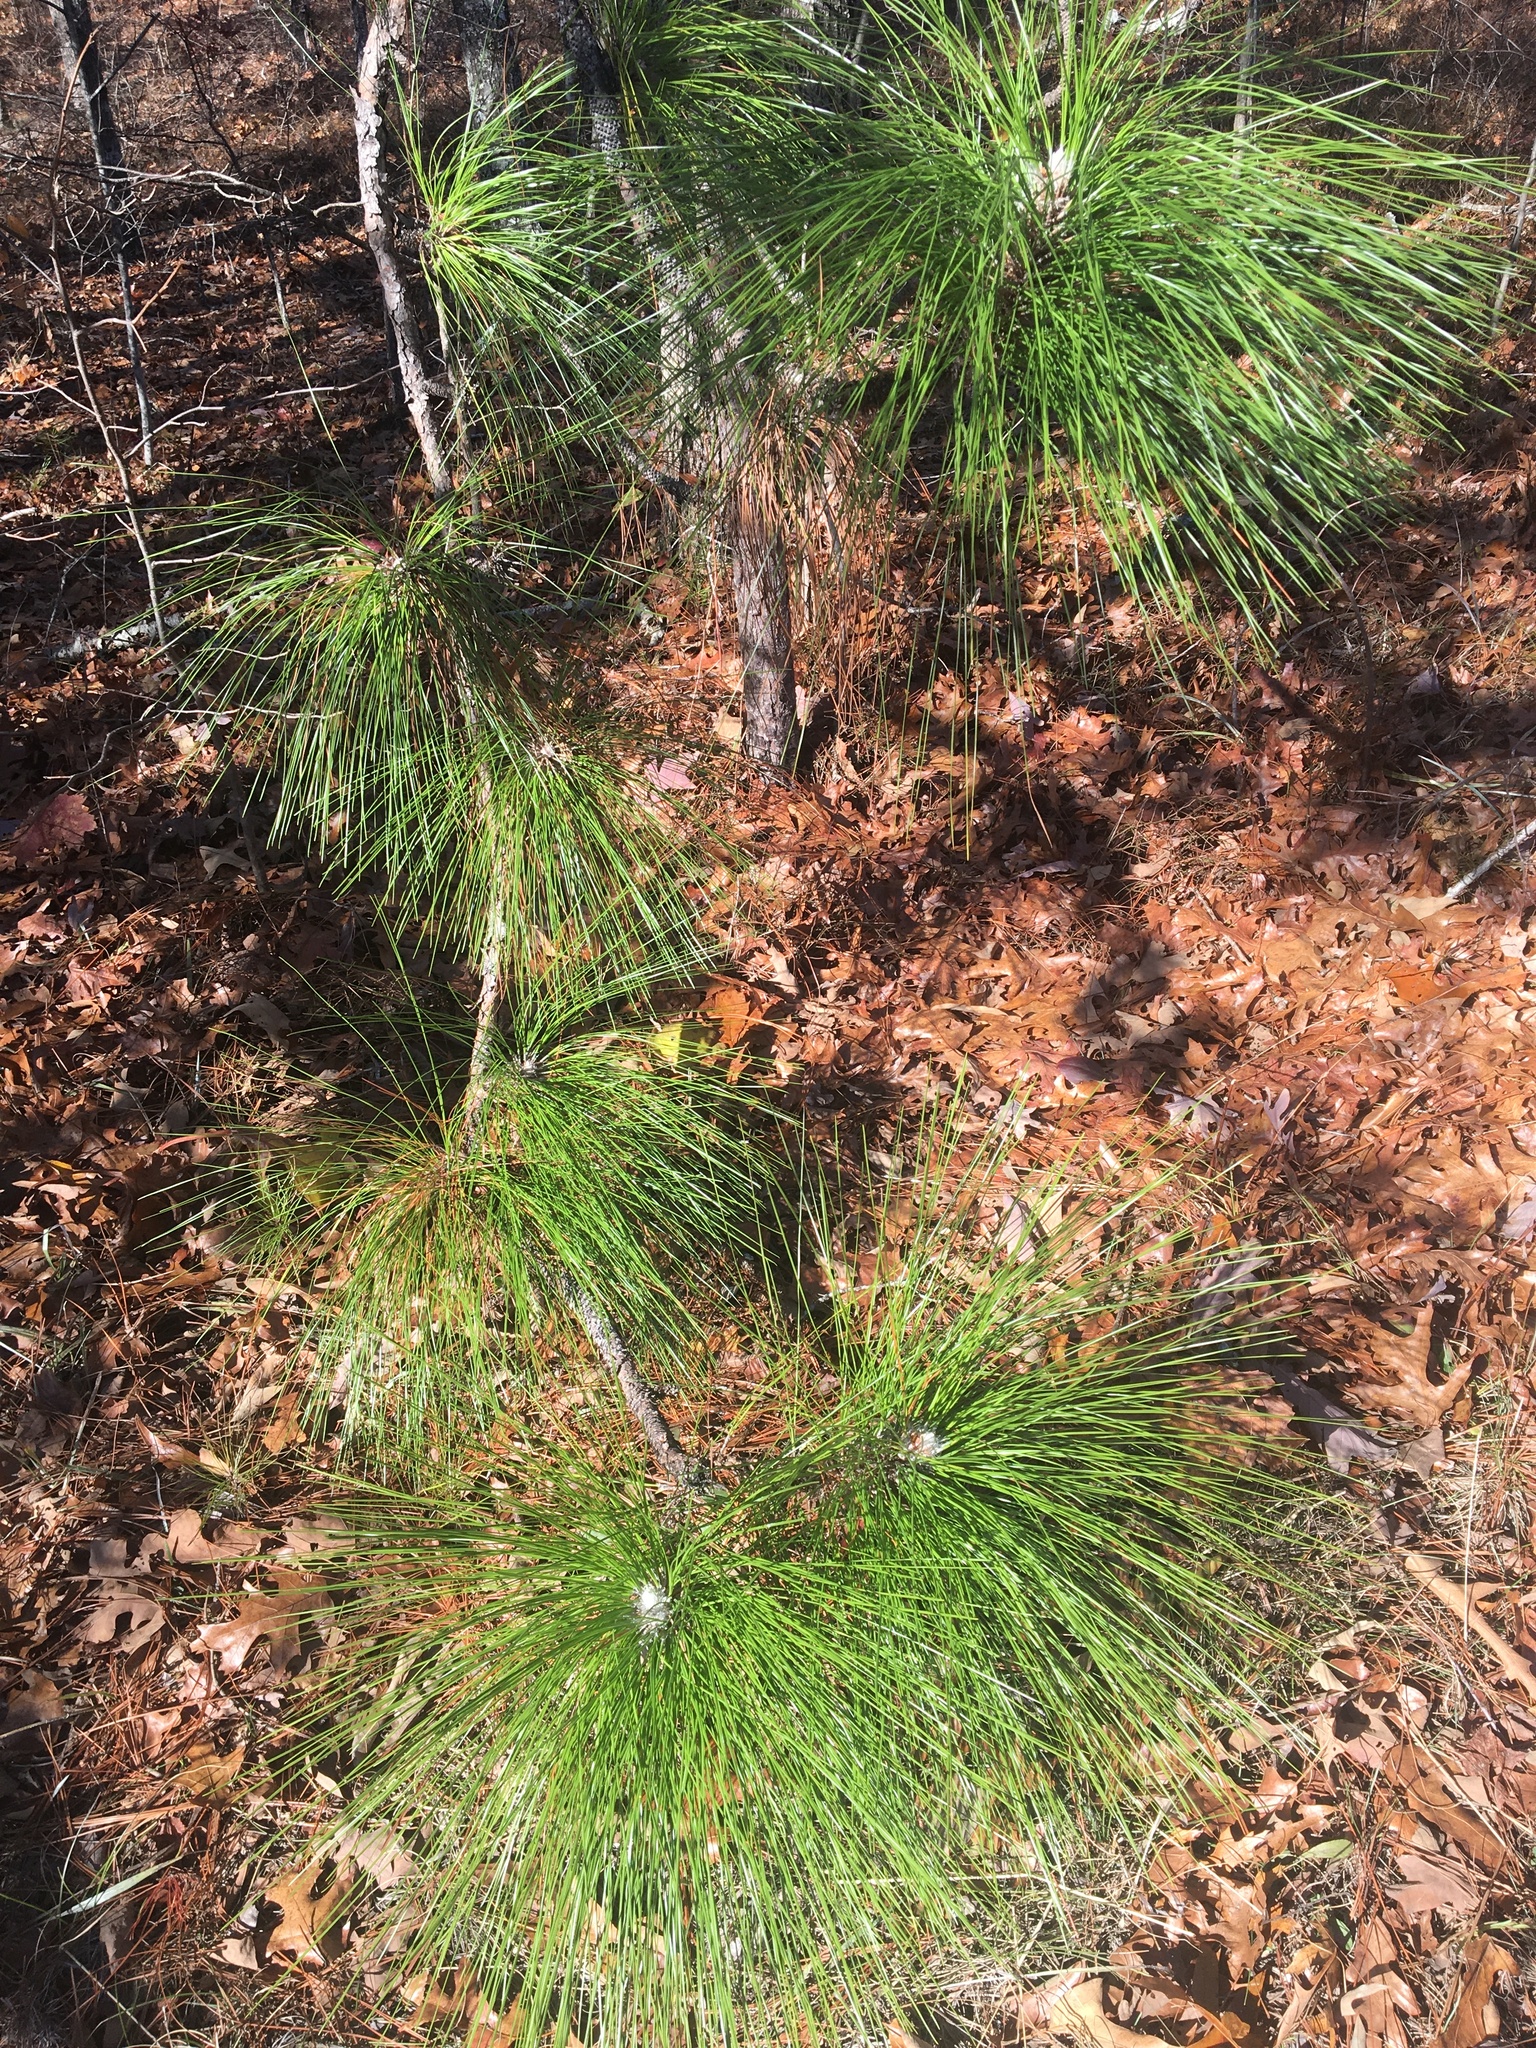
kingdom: Plantae
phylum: Tracheophyta
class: Pinopsida
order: Pinales
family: Pinaceae
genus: Pinus
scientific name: Pinus palustris
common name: Longleaf pine
